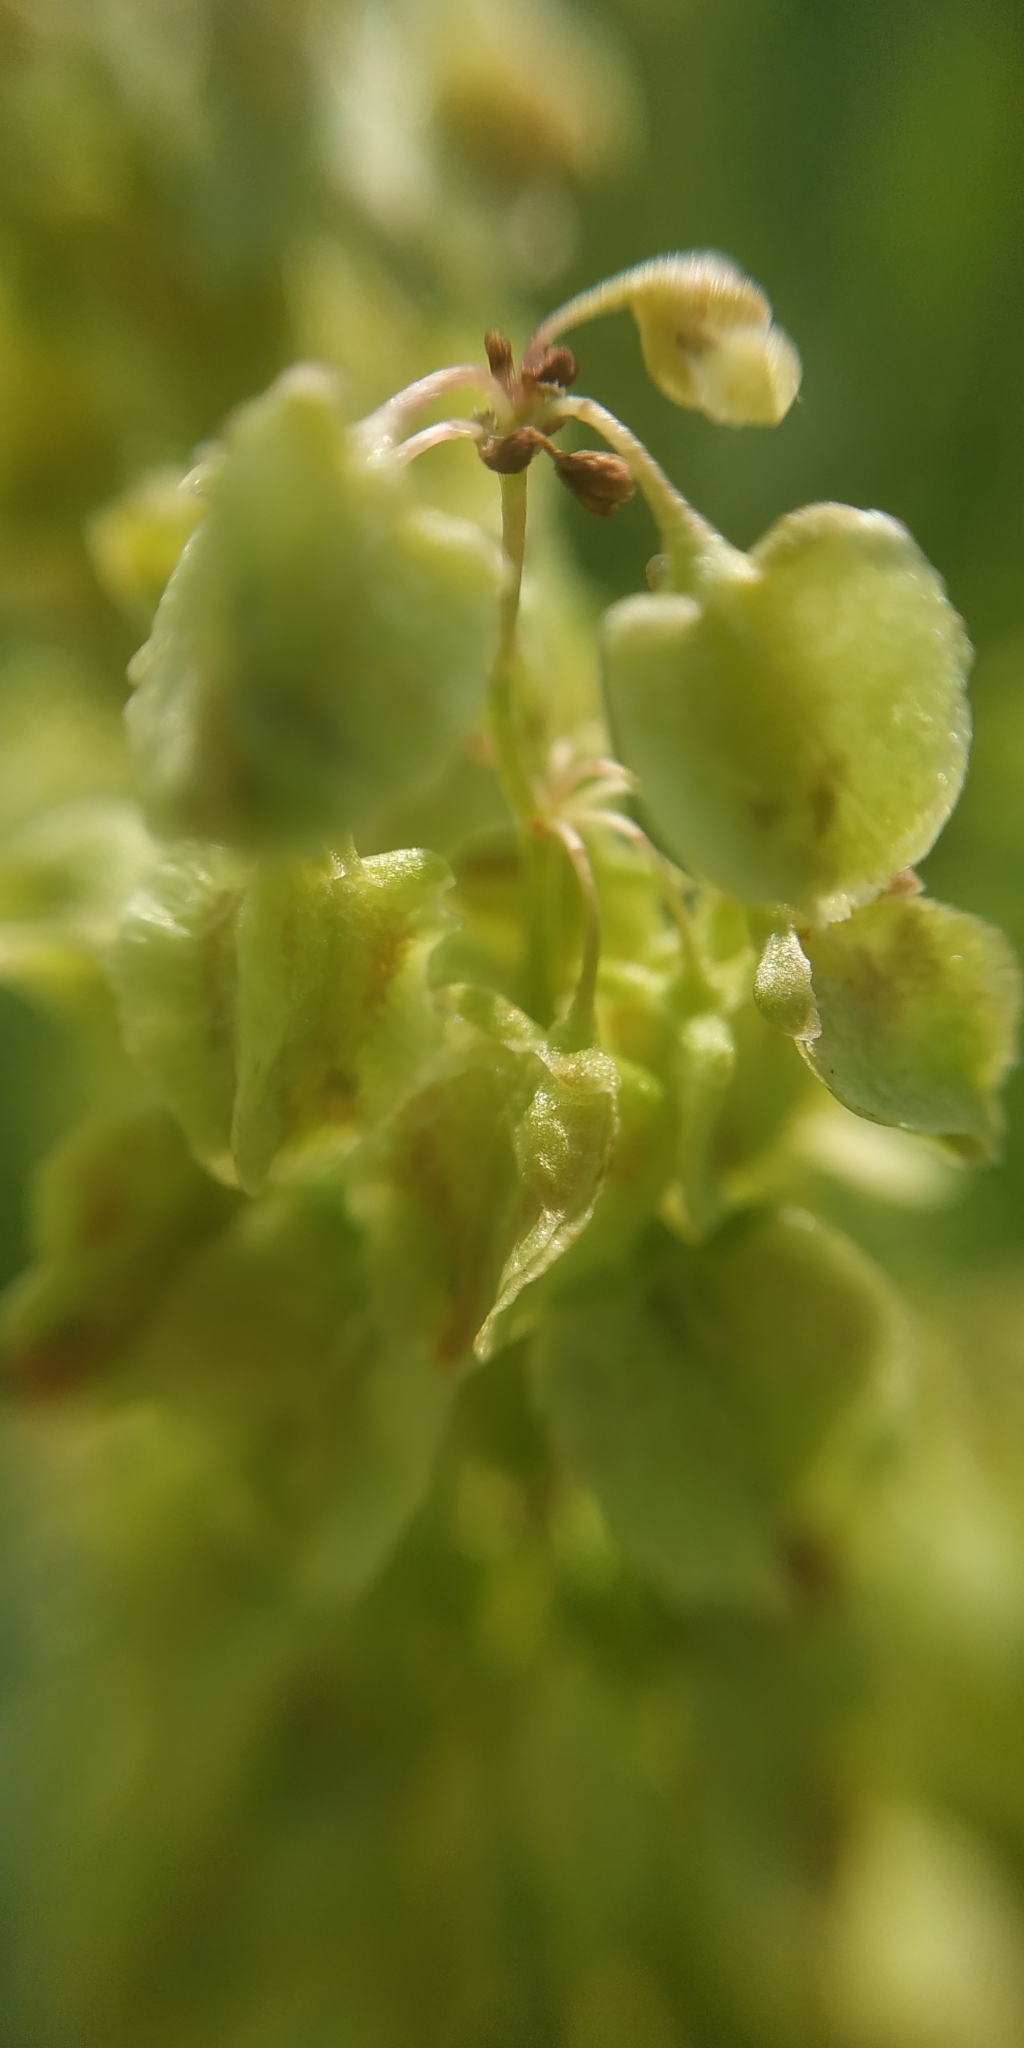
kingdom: Plantae
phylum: Tracheophyta
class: Magnoliopsida
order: Caryophyllales
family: Polygonaceae
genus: Rumex
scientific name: Rumex aquaticus
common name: Scottish dock
